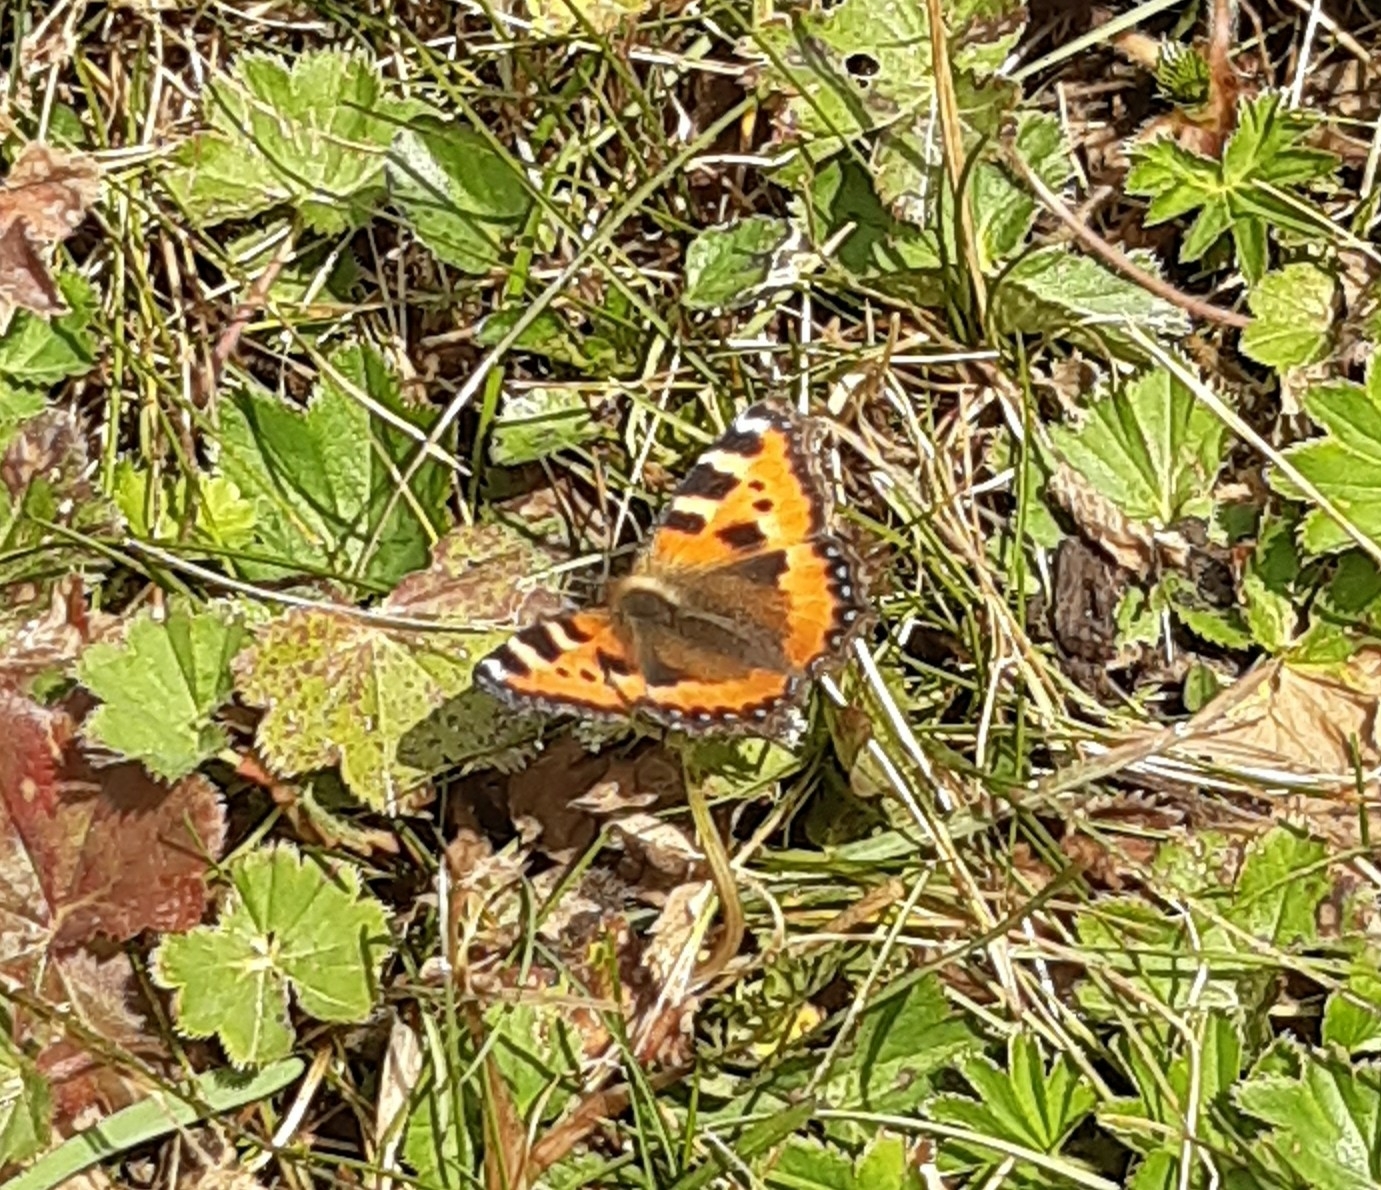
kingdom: Animalia
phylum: Arthropoda
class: Insecta
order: Lepidoptera
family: Nymphalidae
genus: Aglais
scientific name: Aglais urticae
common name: Small tortoiseshell
